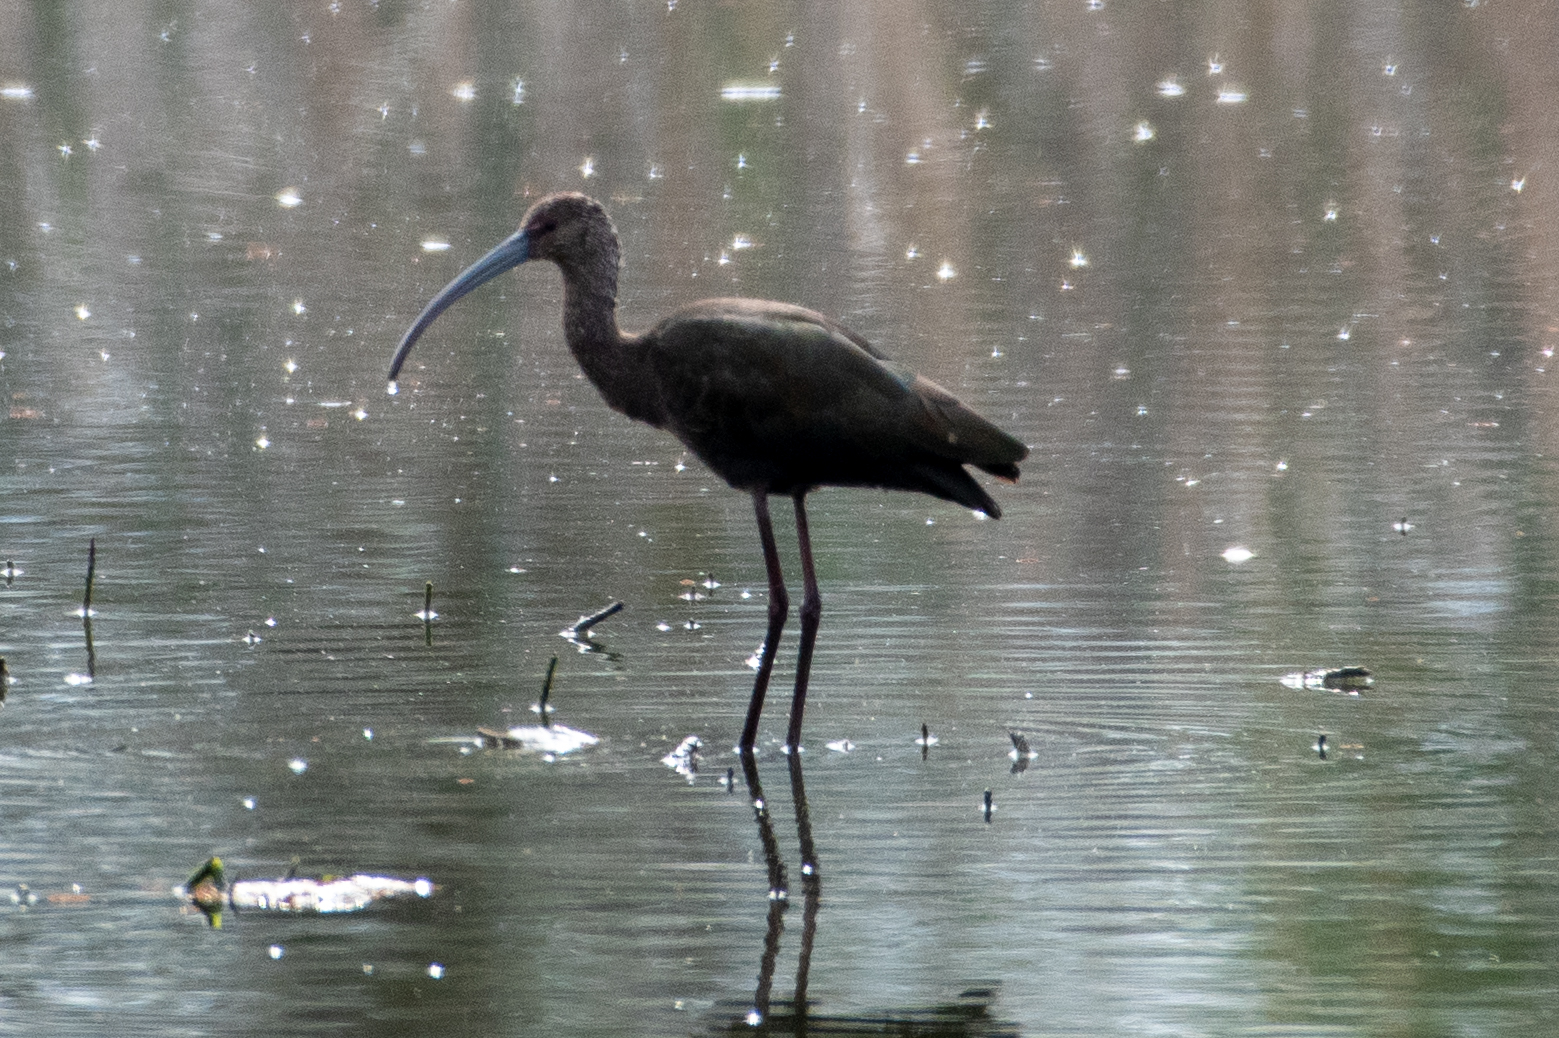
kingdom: Animalia
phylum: Chordata
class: Aves
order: Pelecaniformes
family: Threskiornithidae
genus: Plegadis
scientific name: Plegadis chihi
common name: White-faced ibis
